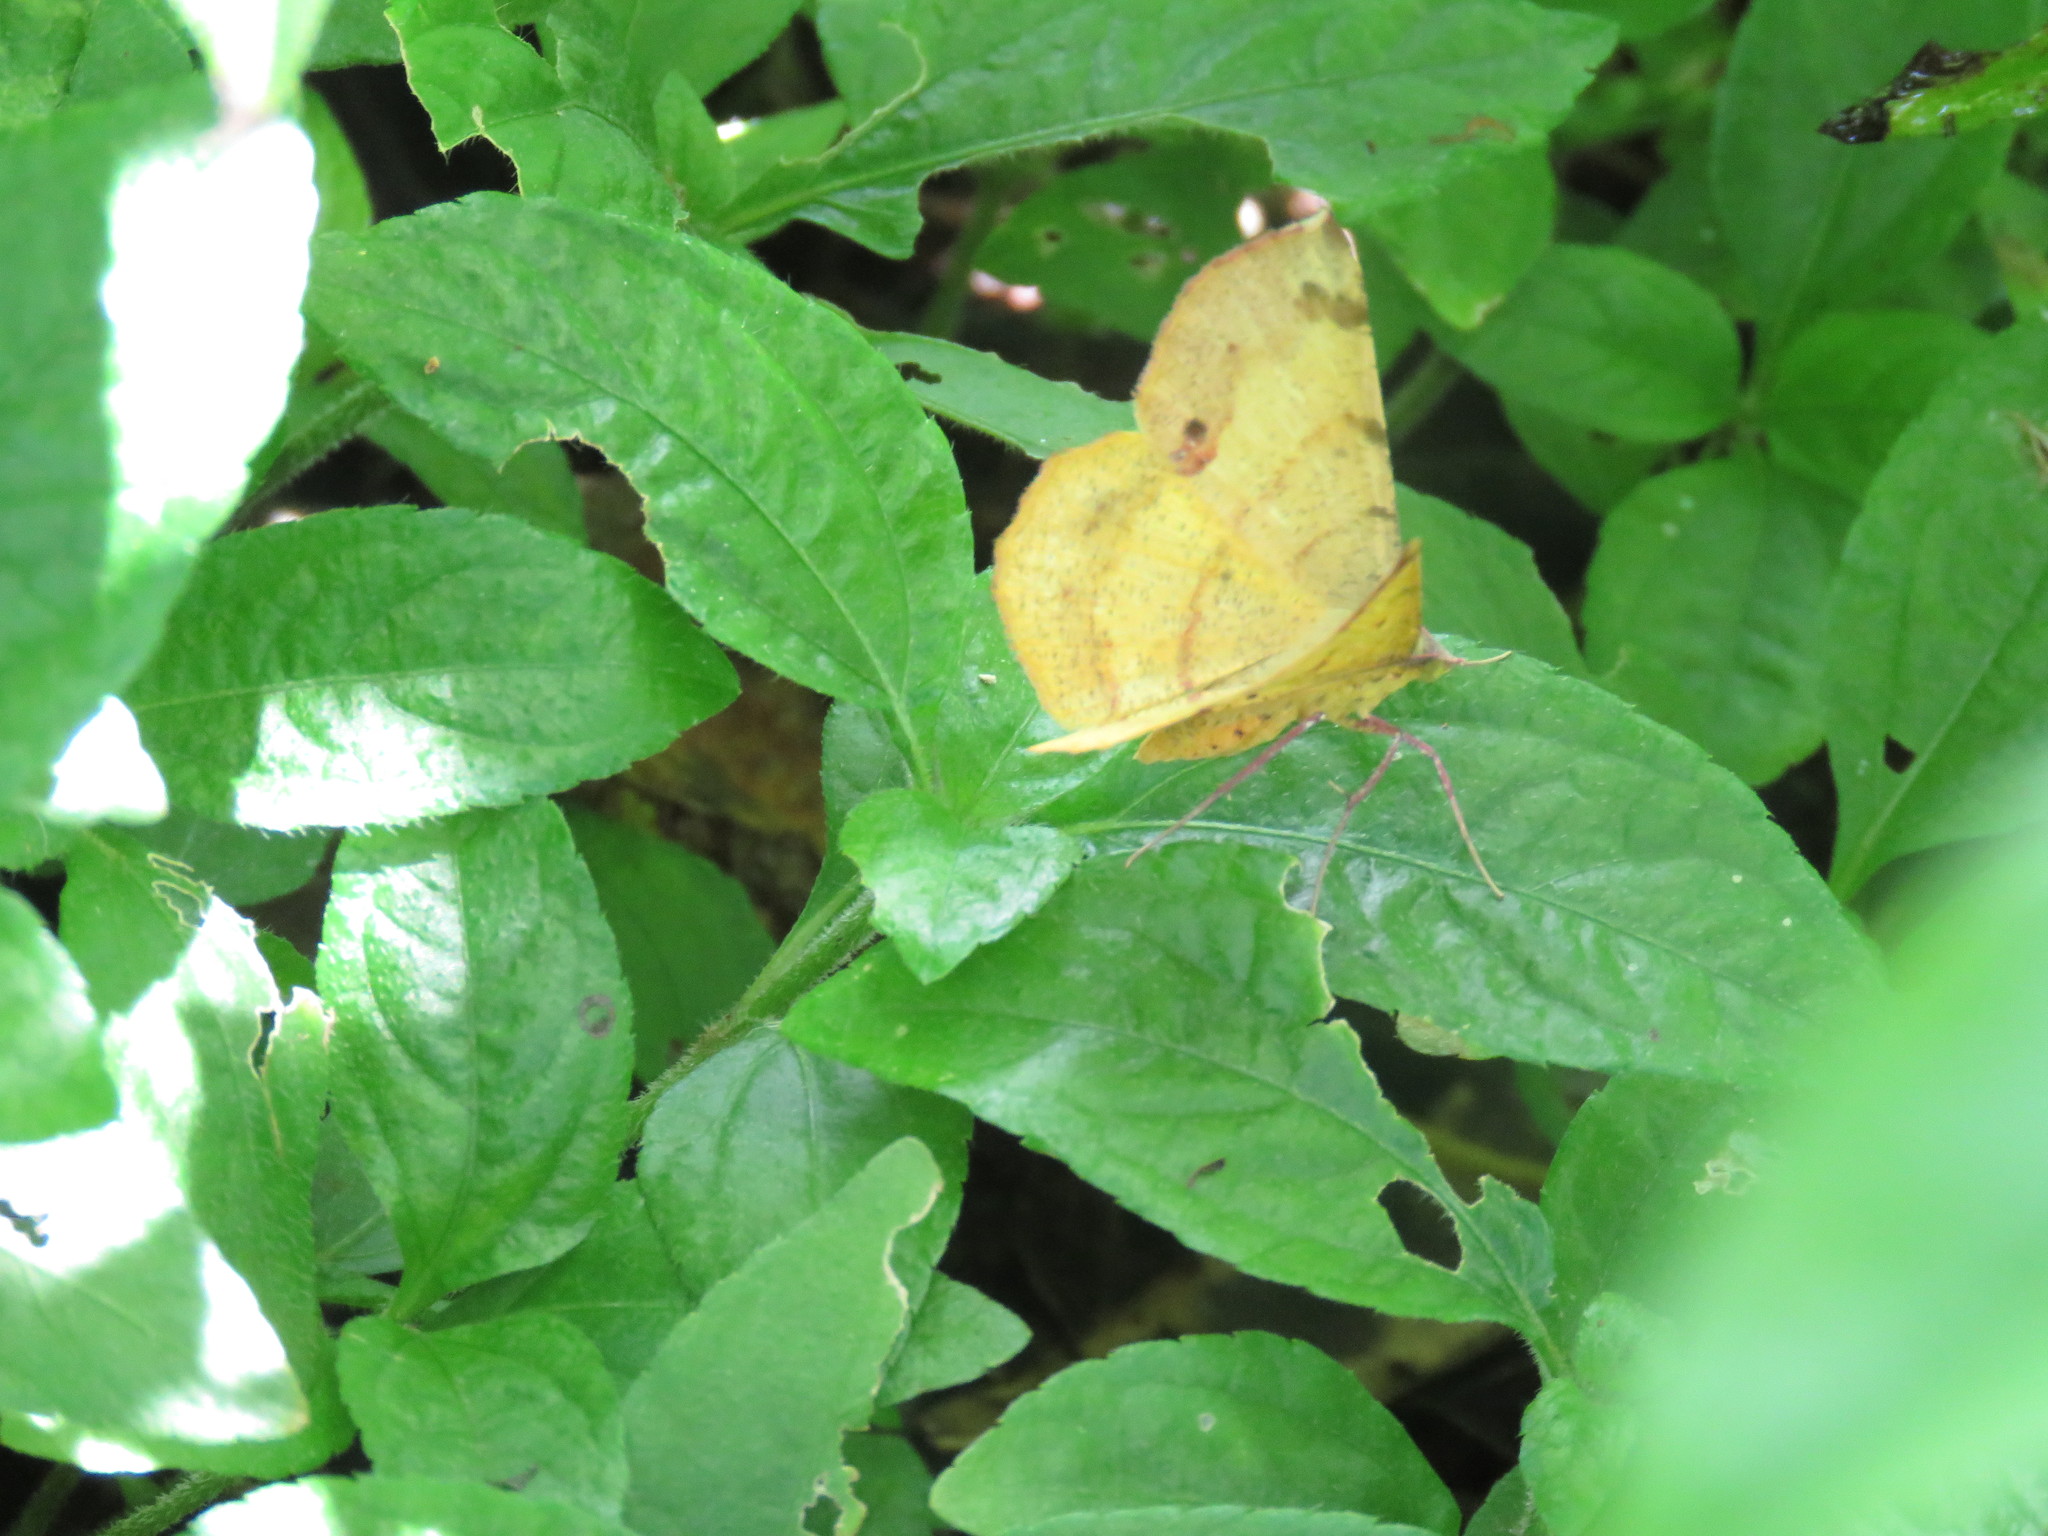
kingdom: Animalia
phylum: Arthropoda
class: Insecta
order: Lepidoptera
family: Geometridae
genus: Erastria
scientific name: Erastria decrepitaria
